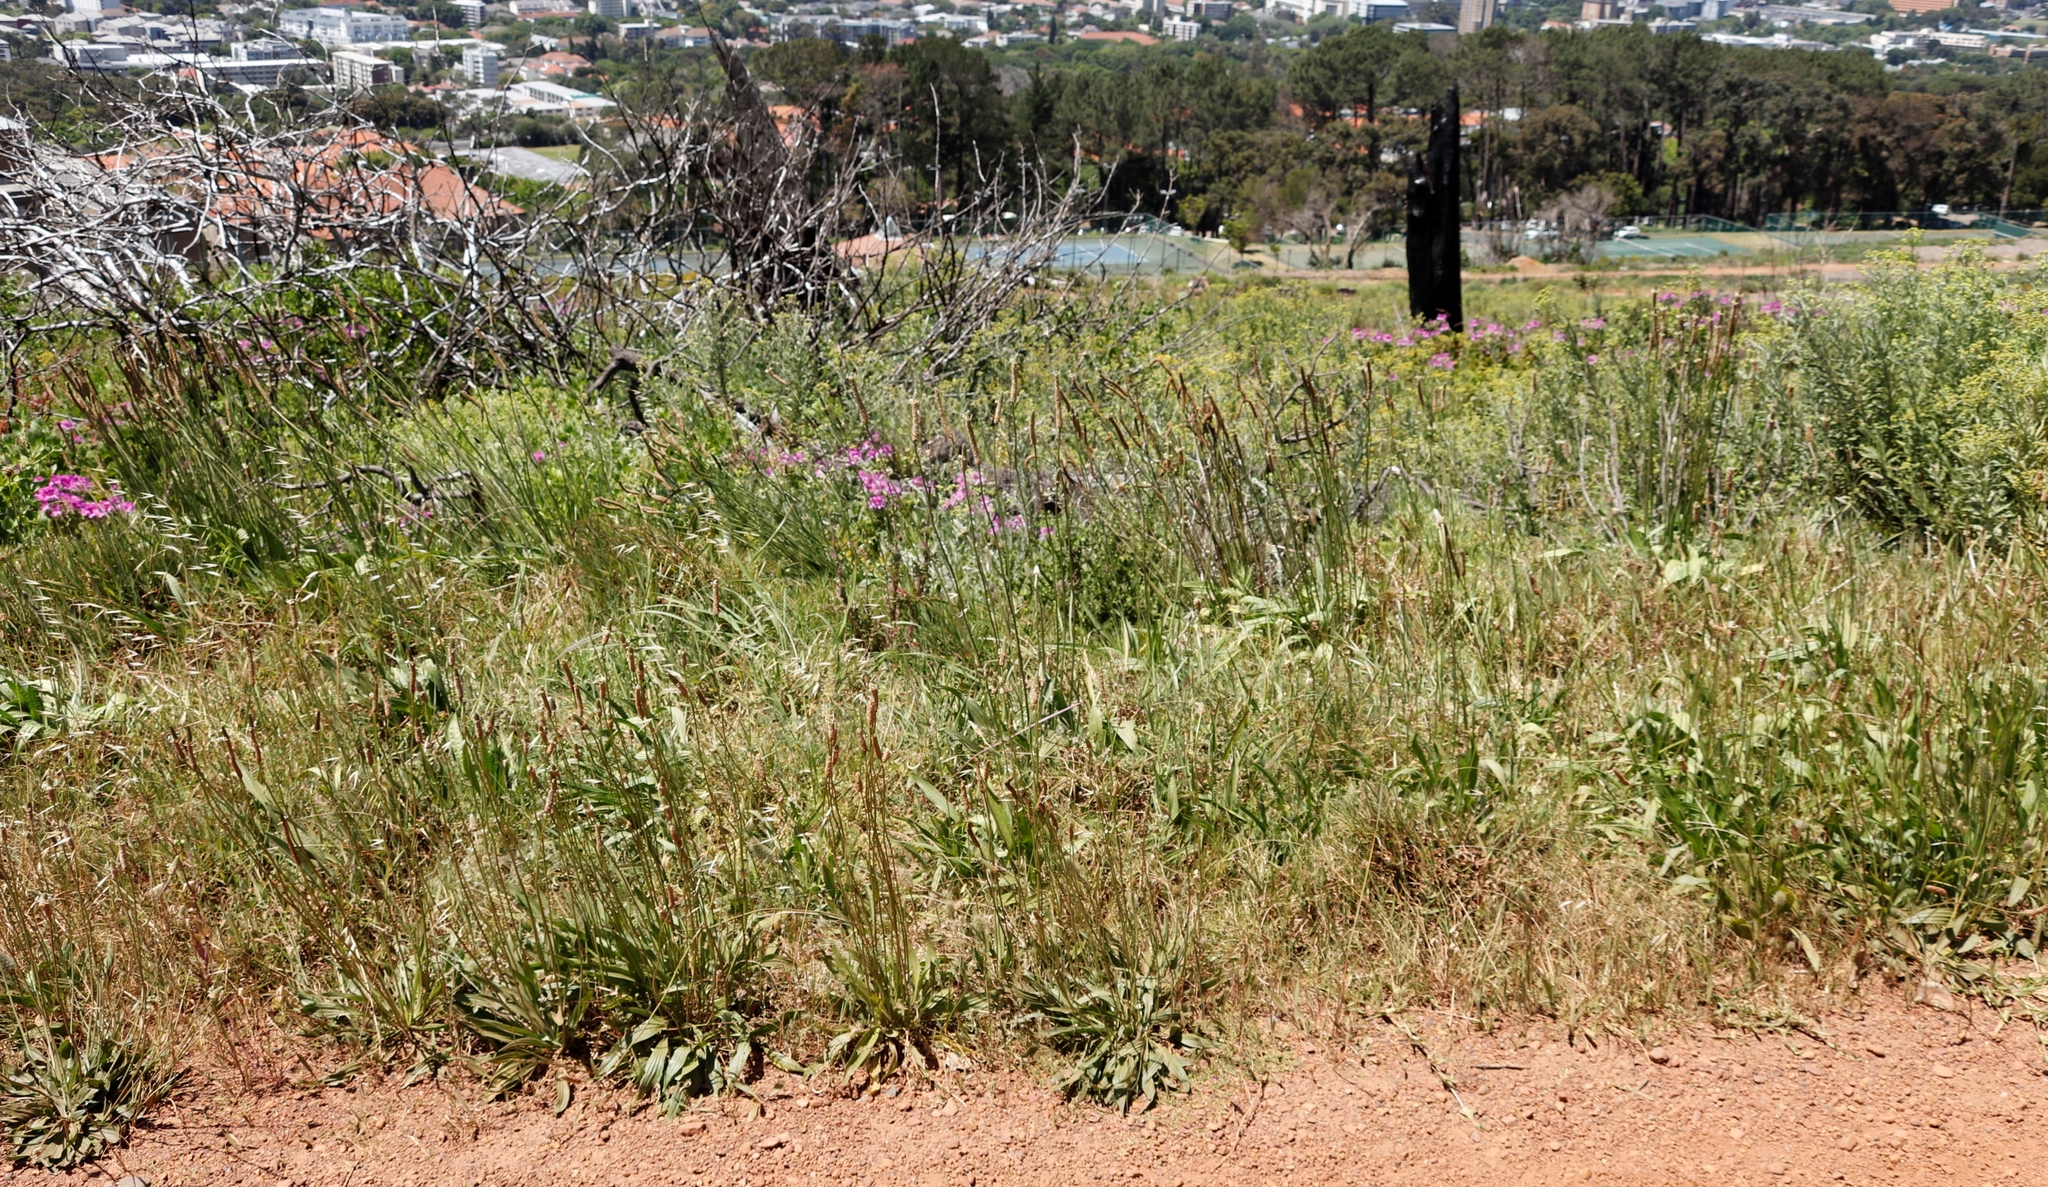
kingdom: Plantae
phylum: Tracheophyta
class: Magnoliopsida
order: Lamiales
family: Plantaginaceae
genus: Plantago
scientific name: Plantago lanceolata
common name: Ribwort plantain
